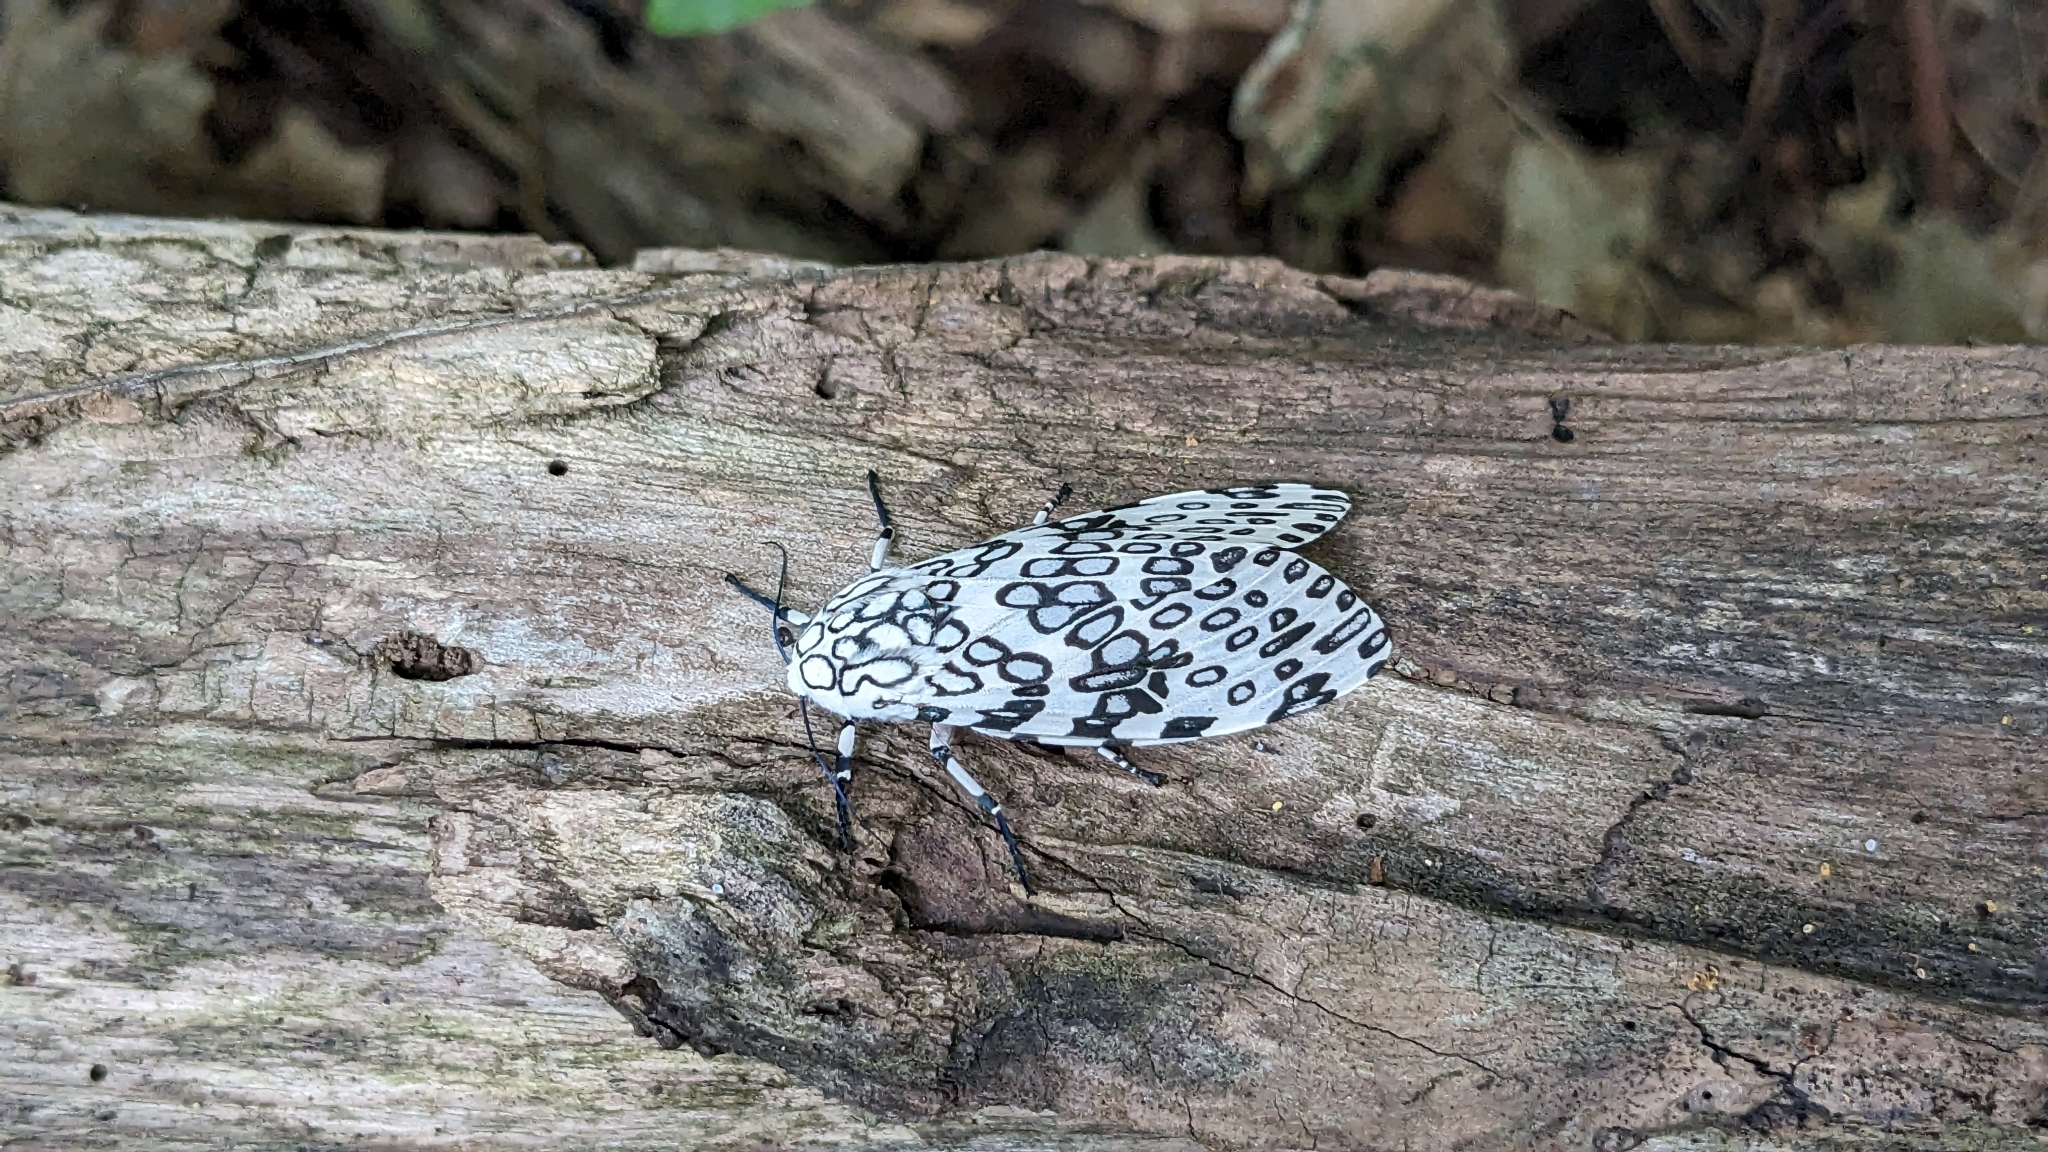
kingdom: Animalia
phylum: Arthropoda
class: Insecta
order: Lepidoptera
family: Erebidae
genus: Hypercompe
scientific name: Hypercompe scribonia
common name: Giant leopard moth
